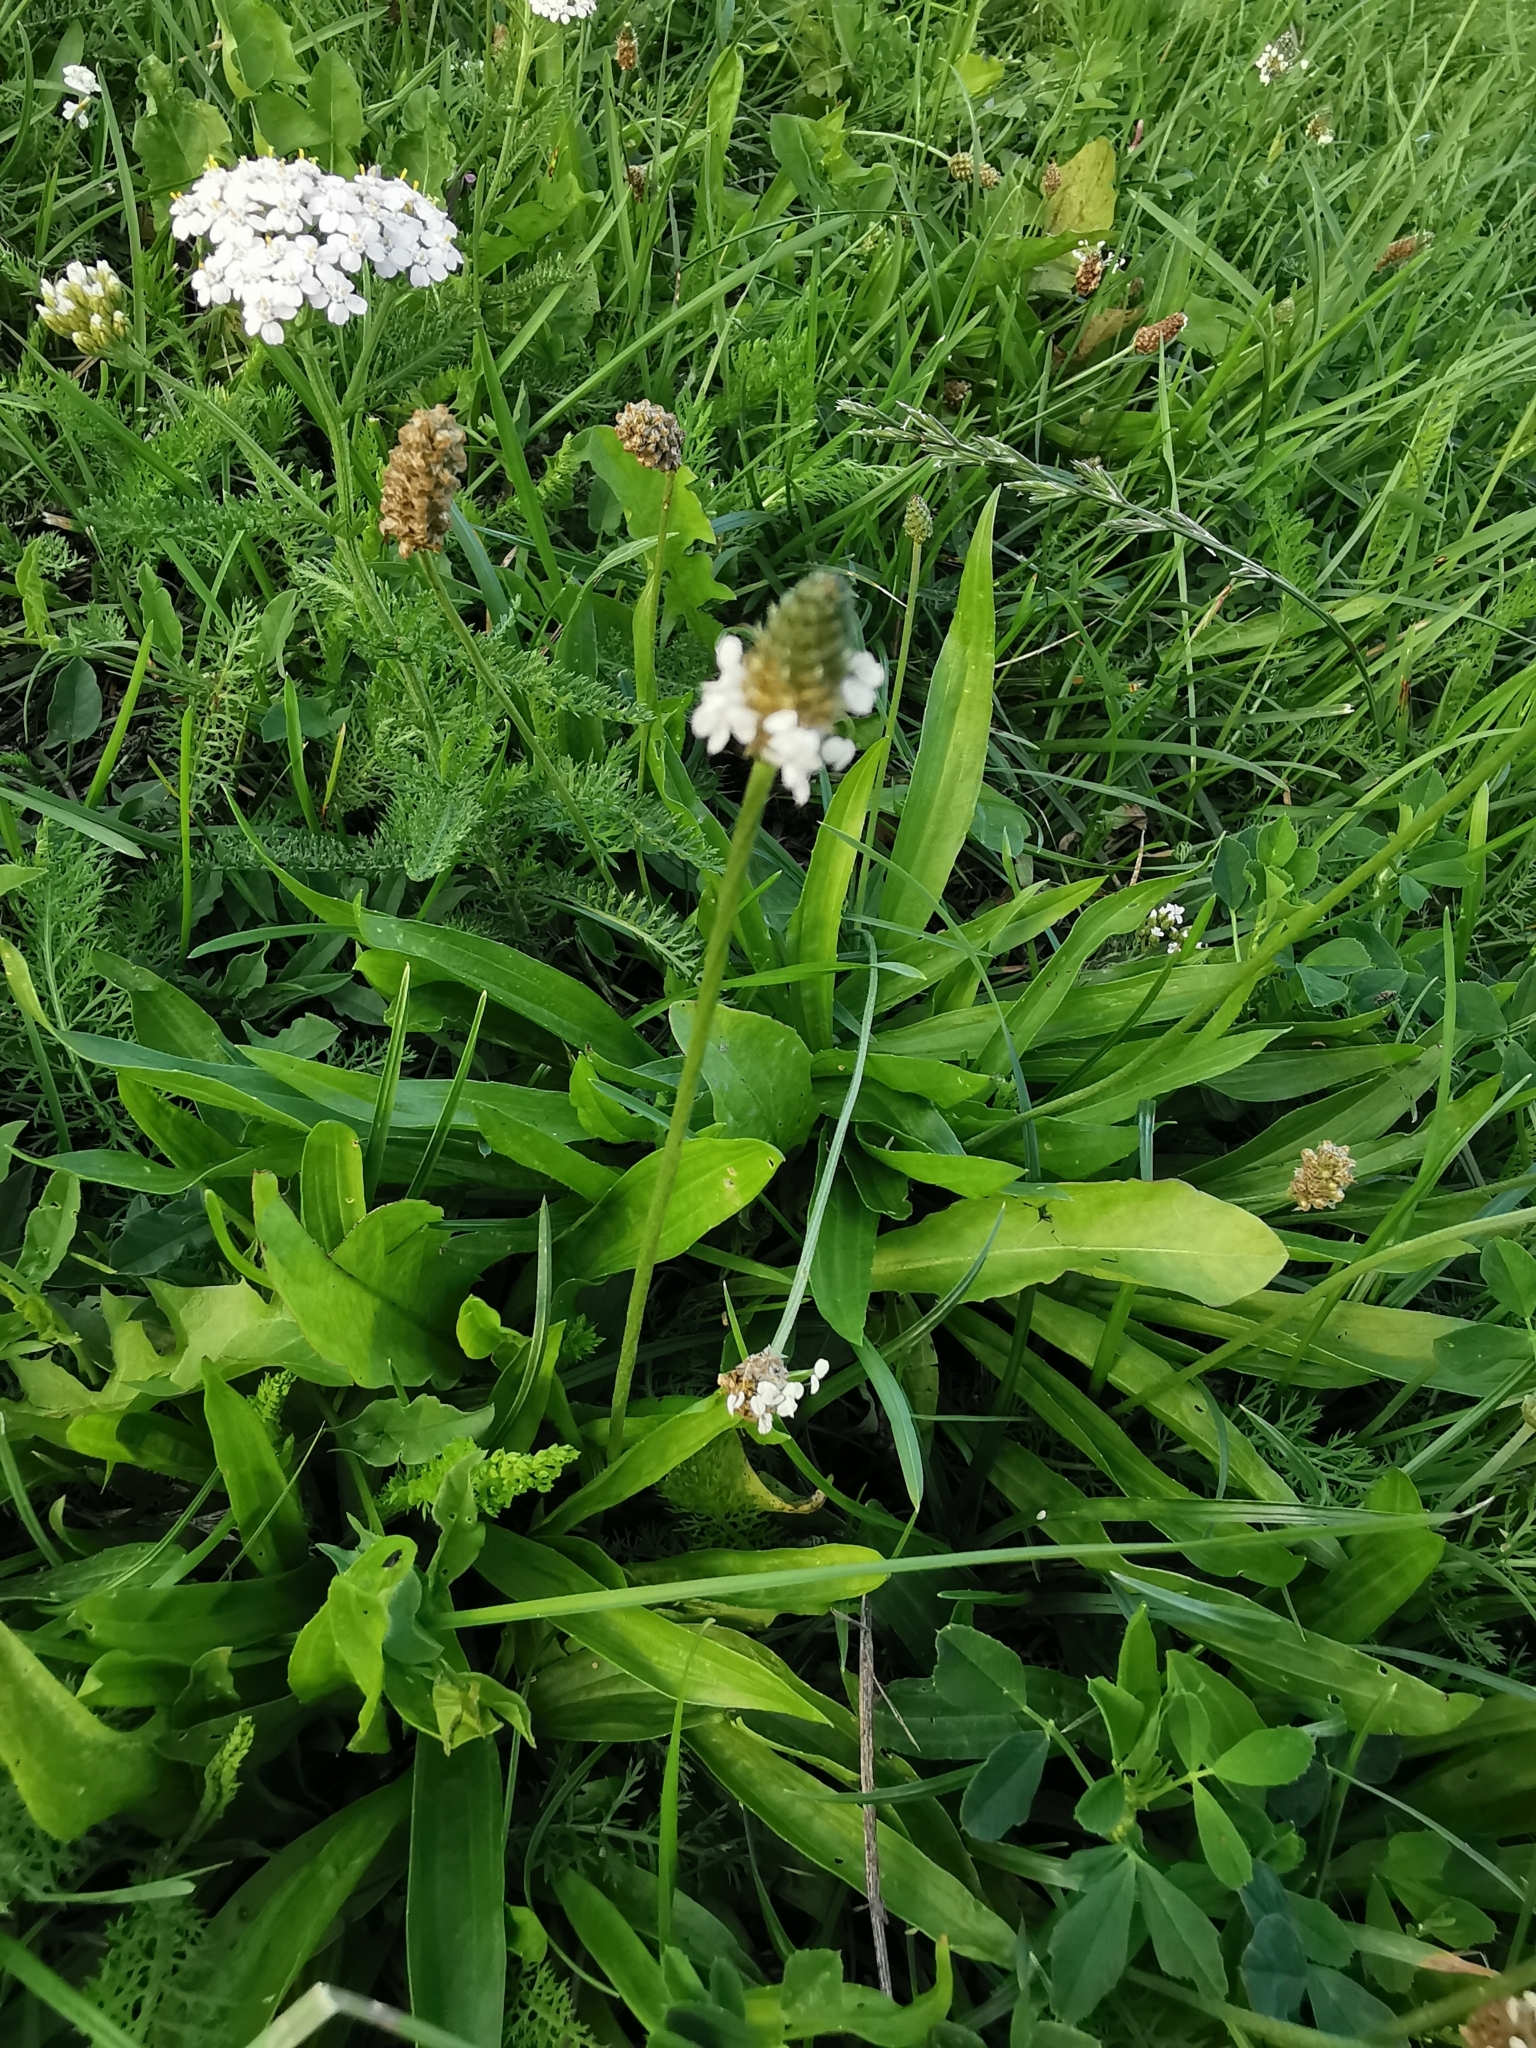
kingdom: Plantae
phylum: Tracheophyta
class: Magnoliopsida
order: Lamiales
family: Plantaginaceae
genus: Plantago
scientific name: Plantago lanceolata
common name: Ribwort plantain
